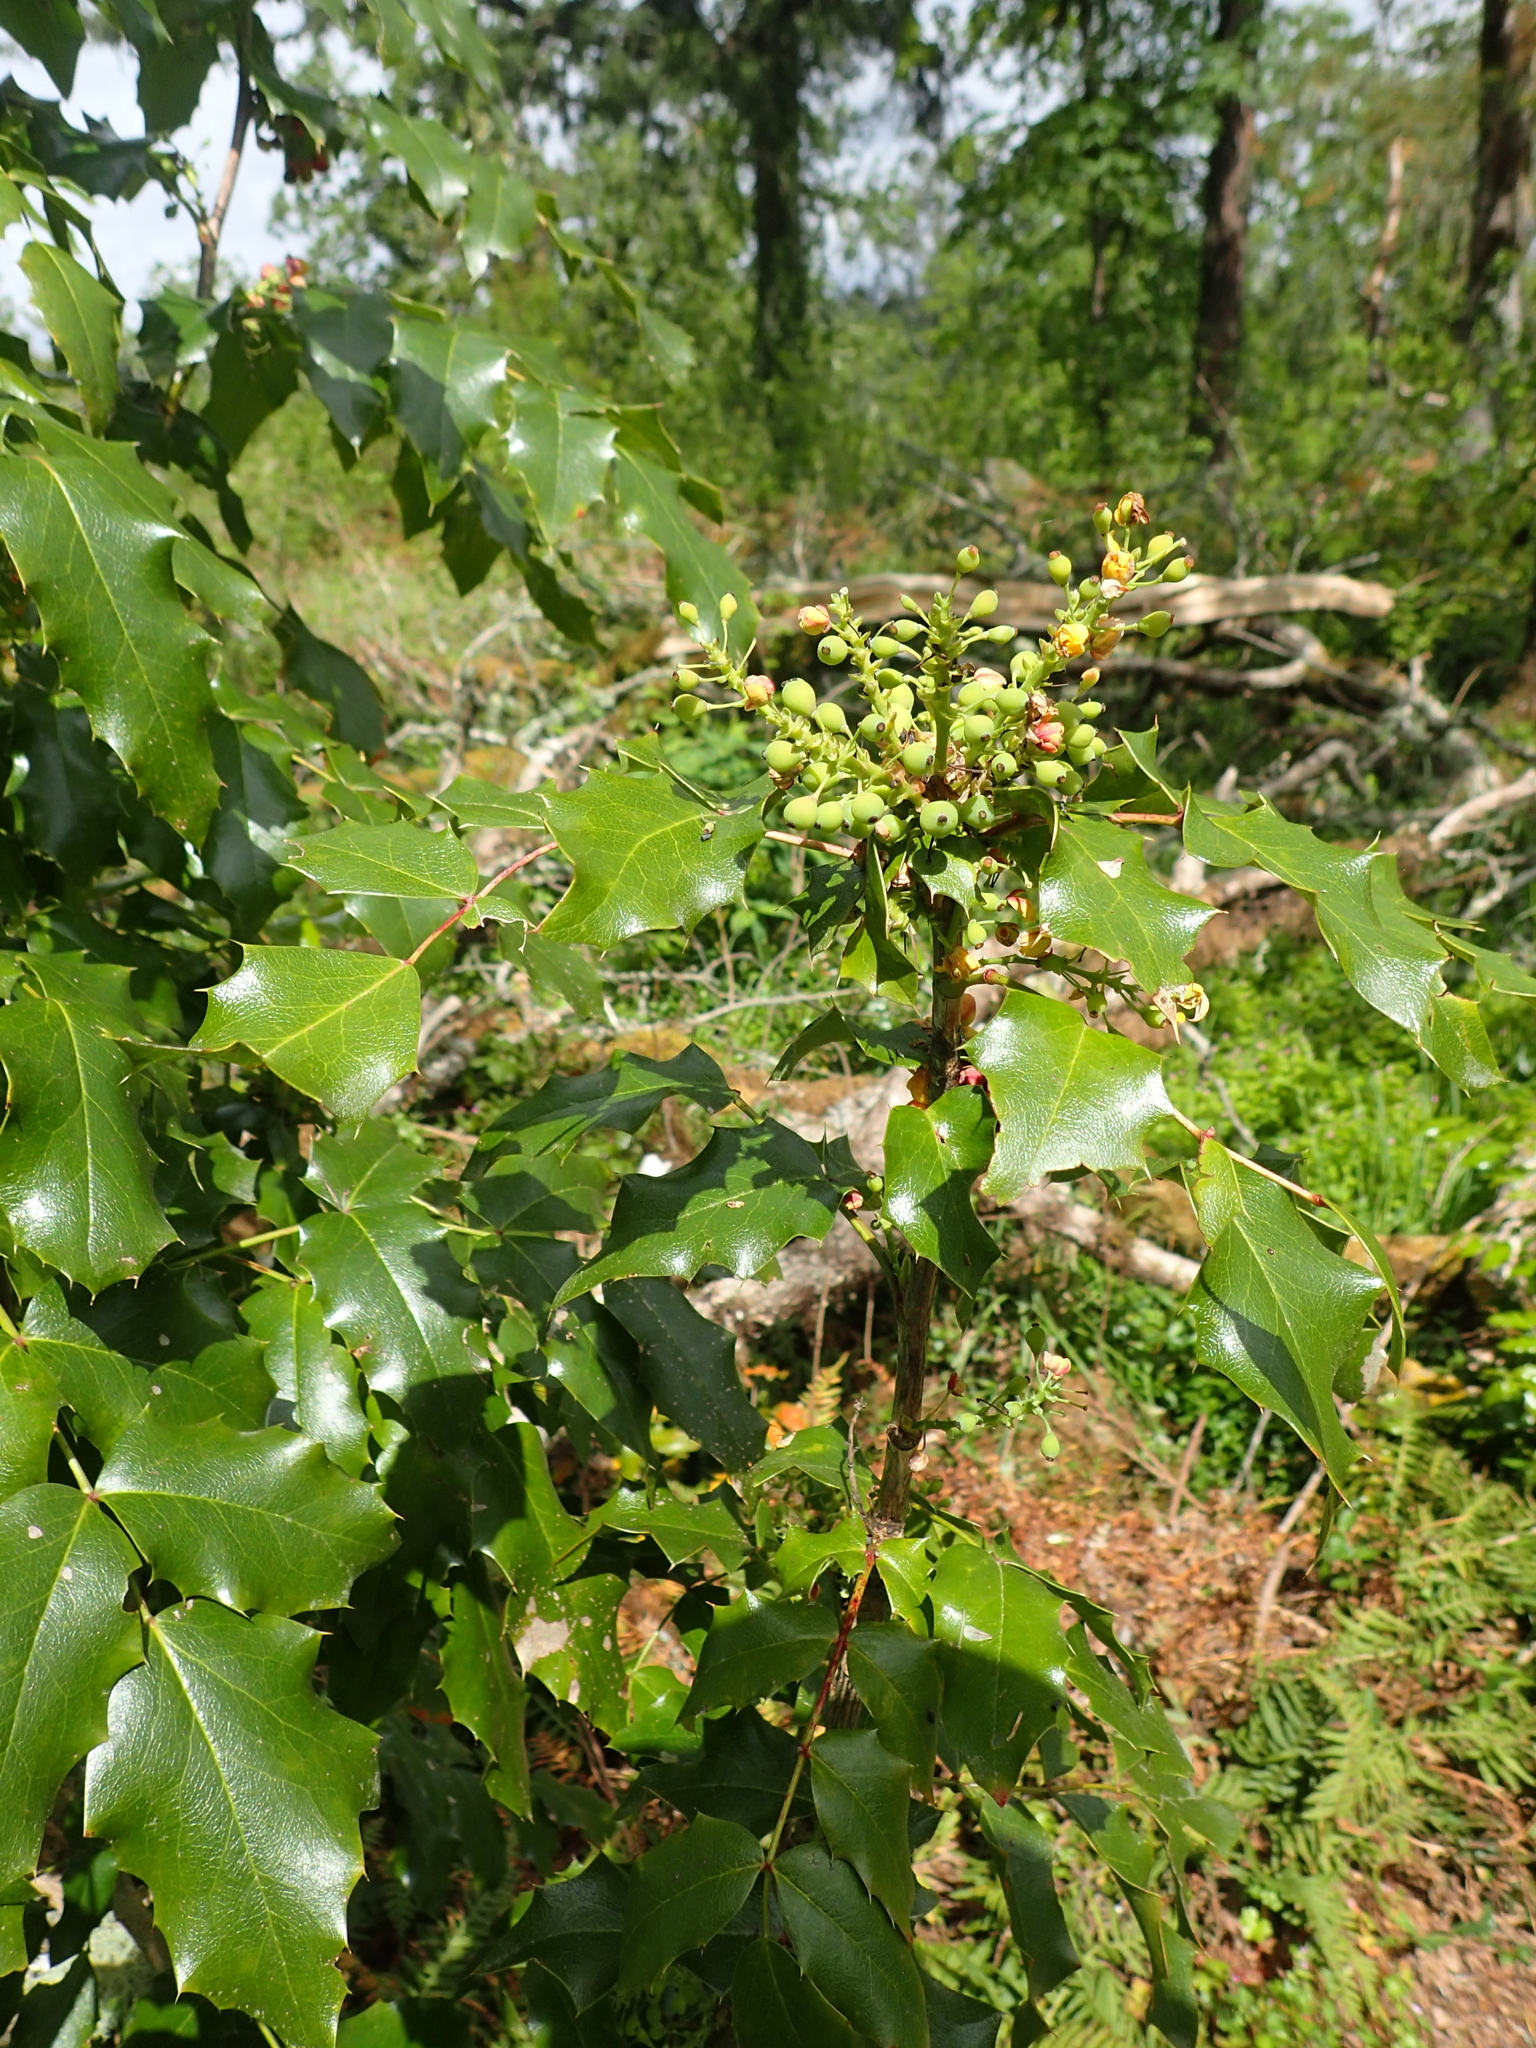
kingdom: Plantae
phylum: Tracheophyta
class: Magnoliopsida
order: Ranunculales
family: Berberidaceae
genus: Mahonia
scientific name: Mahonia aquifolium
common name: Oregon-grape
